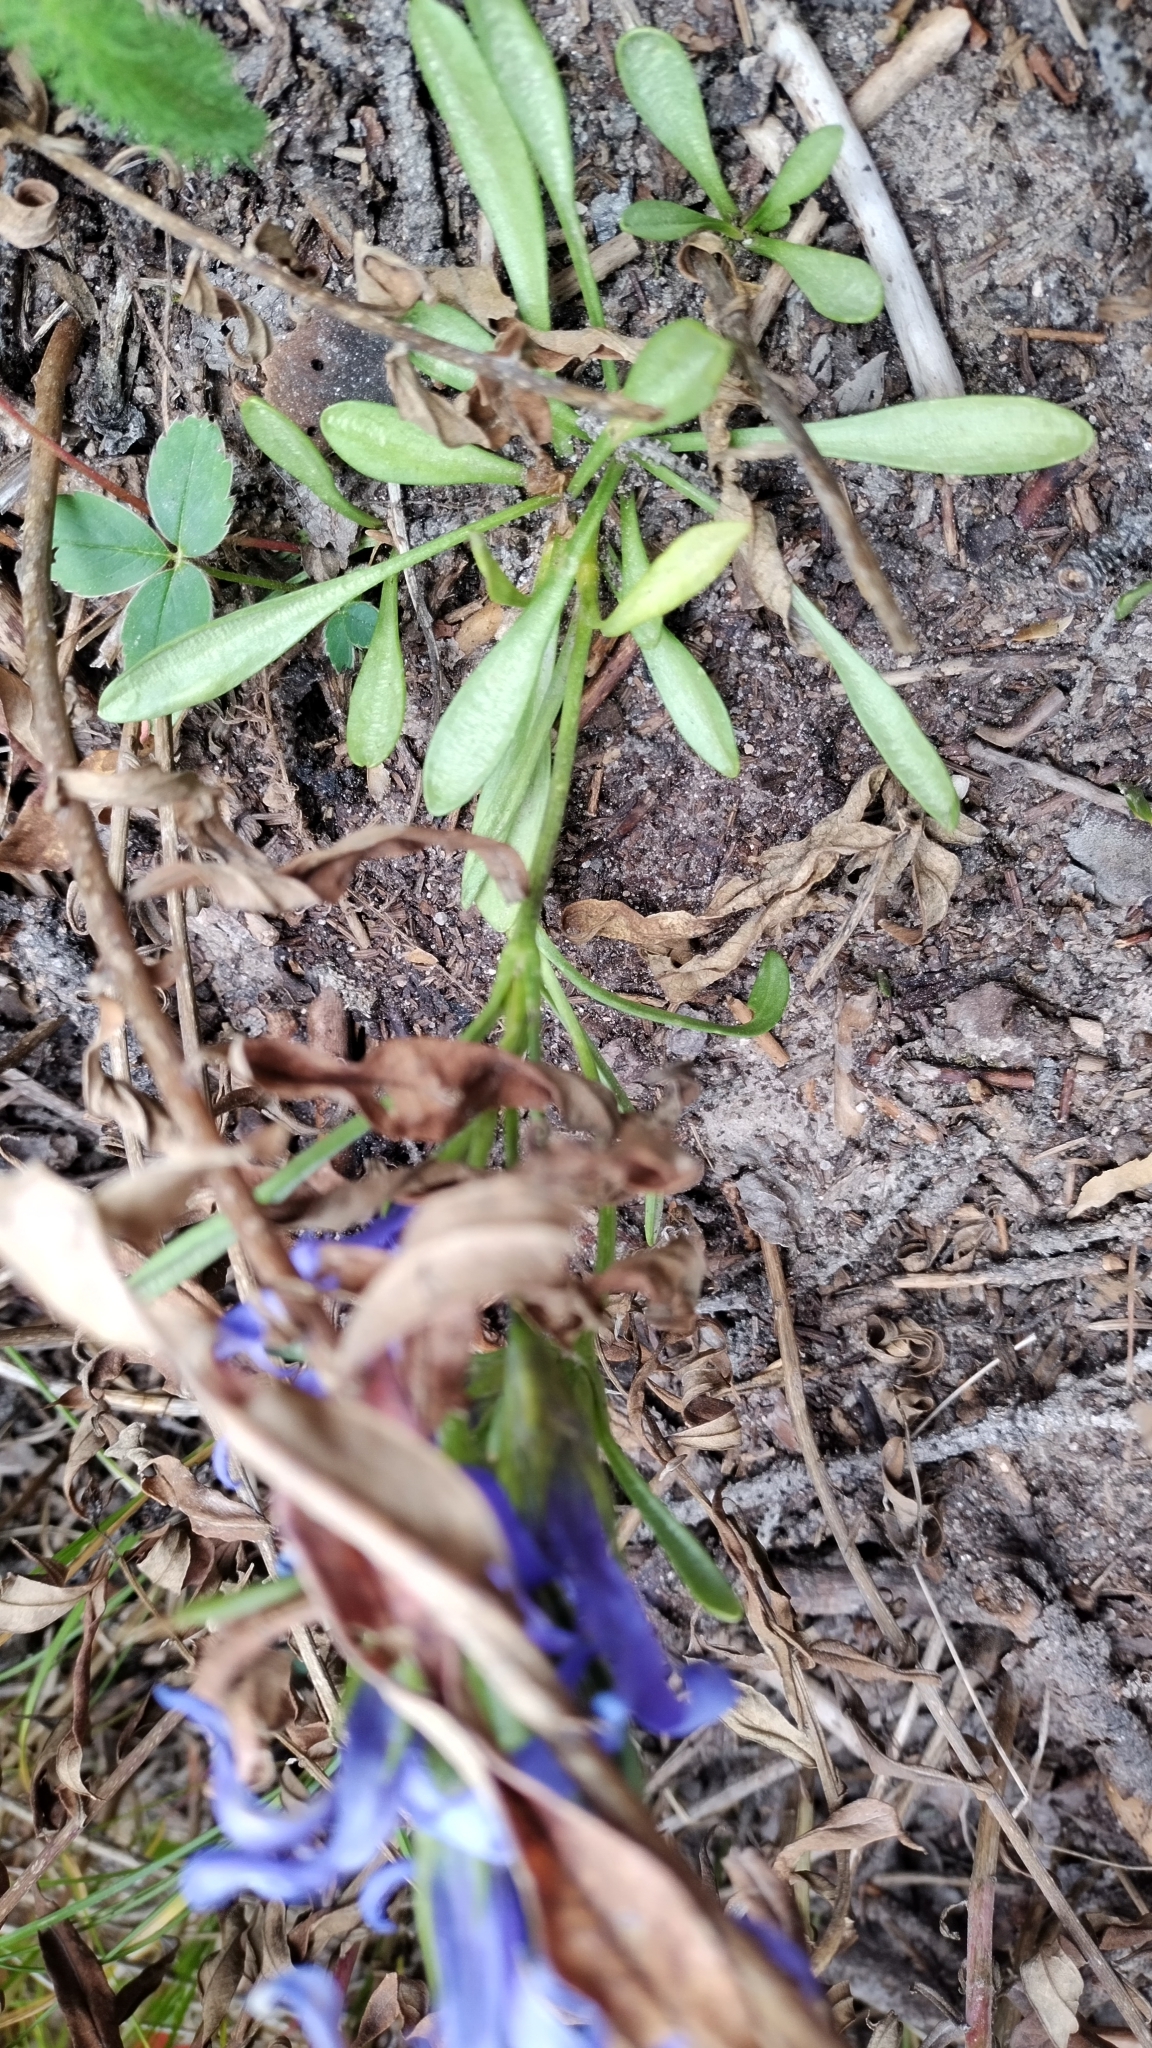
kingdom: Plantae
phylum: Tracheophyta
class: Magnoliopsida
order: Gentianales
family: Gentianaceae
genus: Gentianopsis
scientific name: Gentianopsis barbellata
